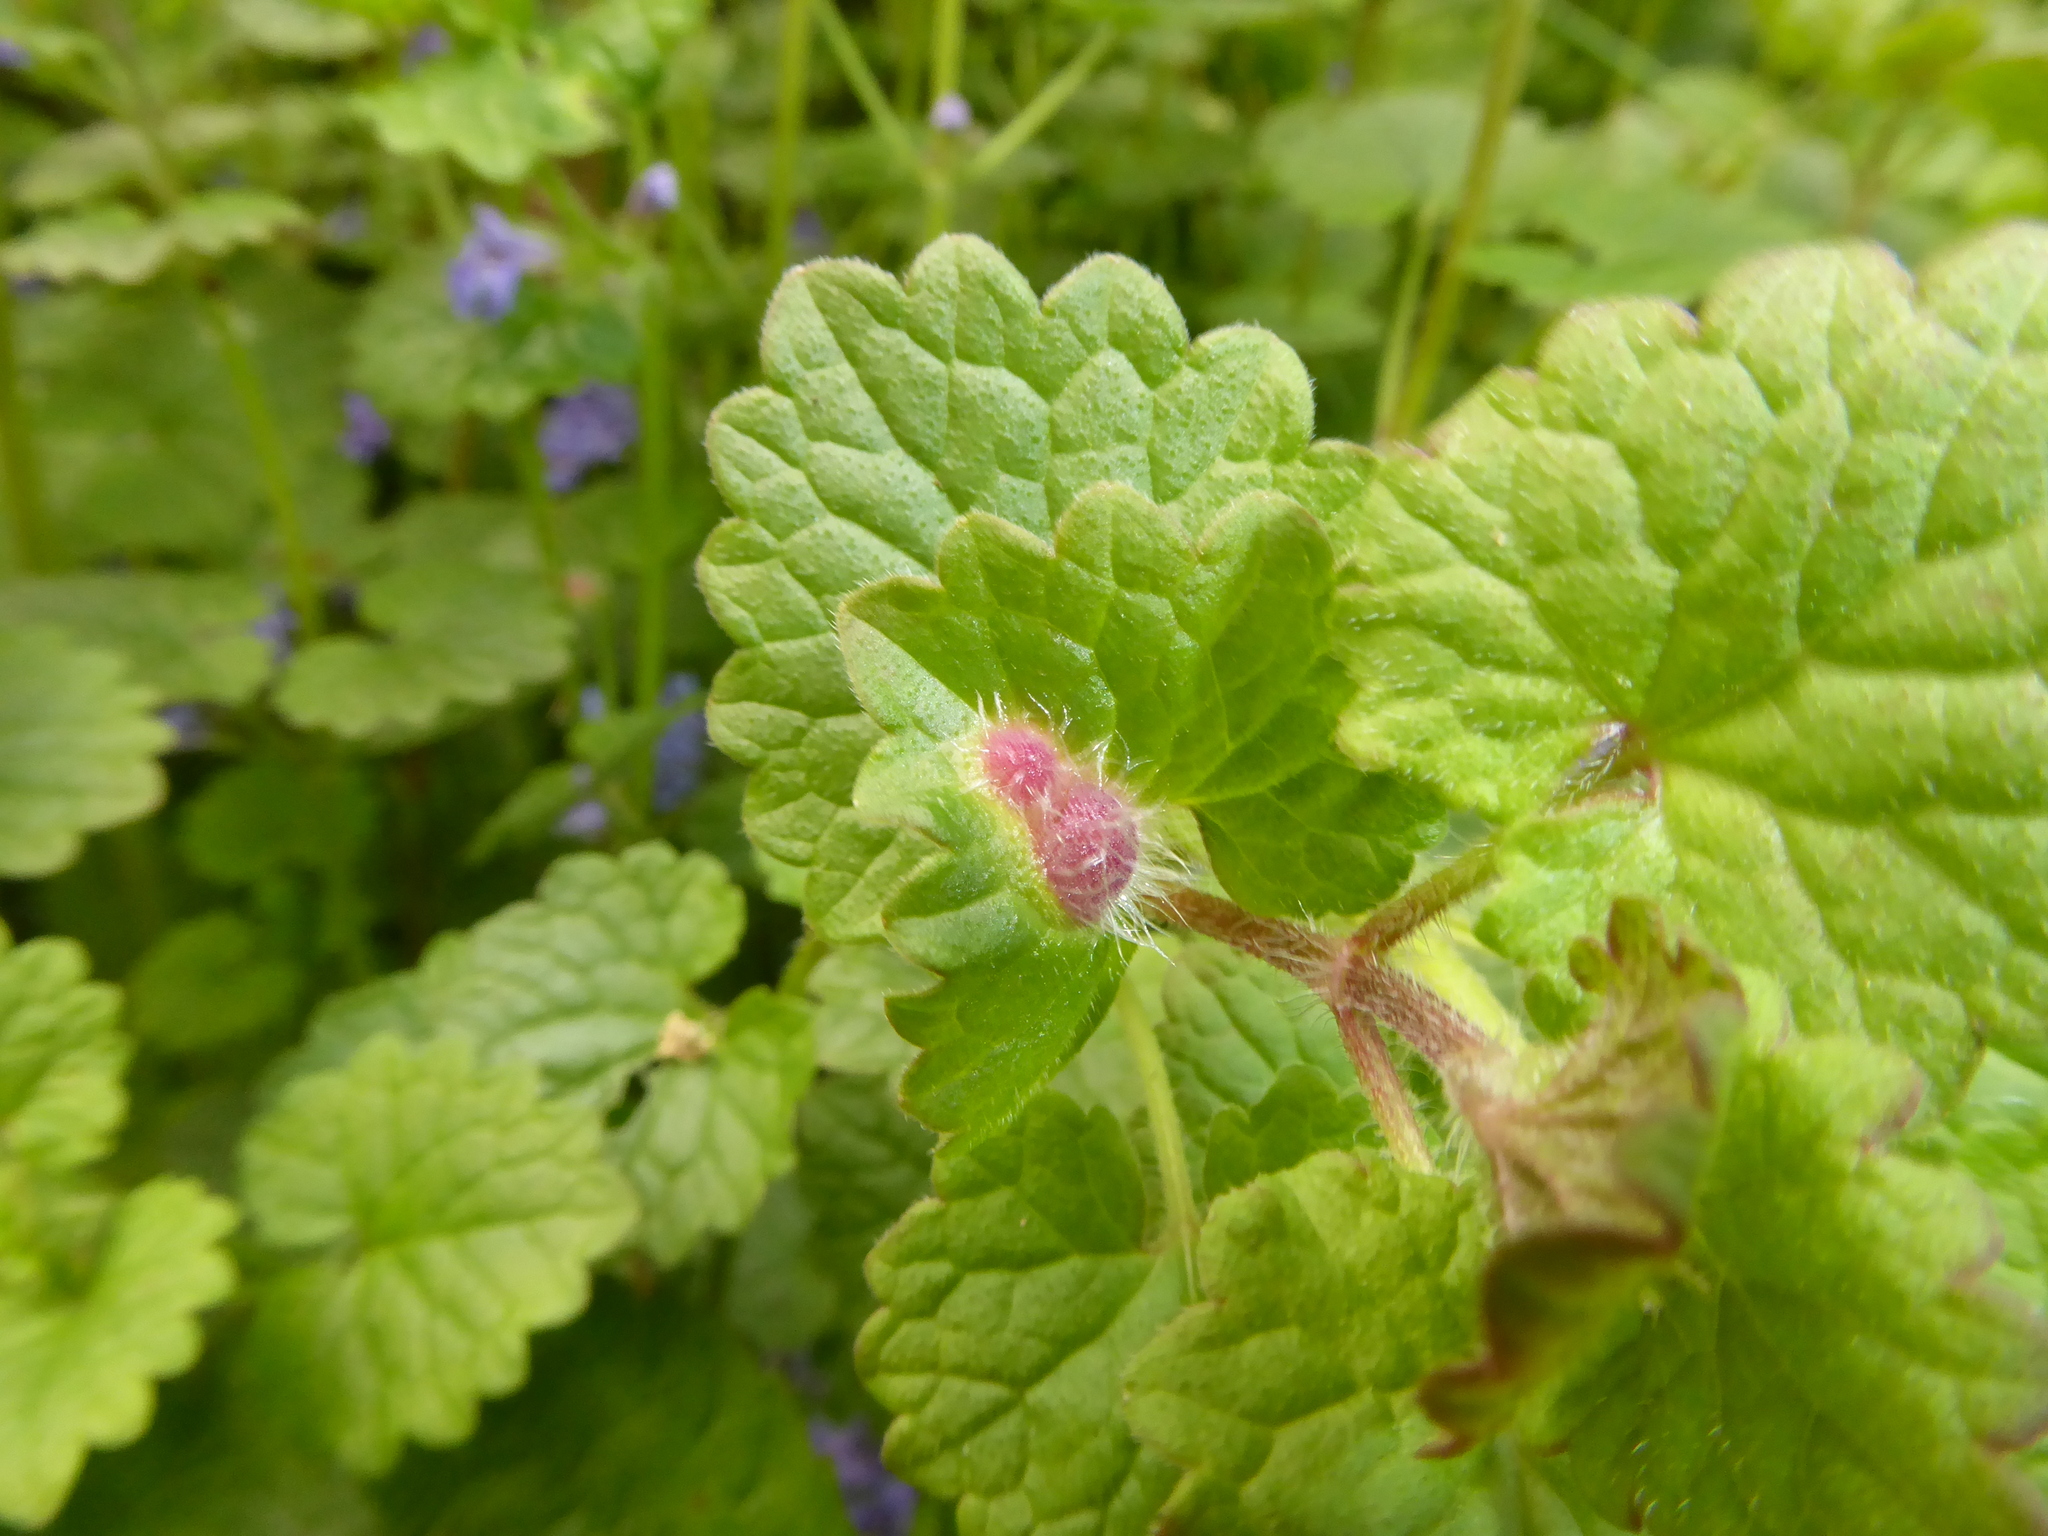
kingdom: Animalia
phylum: Arthropoda
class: Insecta
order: Hymenoptera
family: Cynipidae
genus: Liposthenes
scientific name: Liposthenes glechomae
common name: Gall wasp
